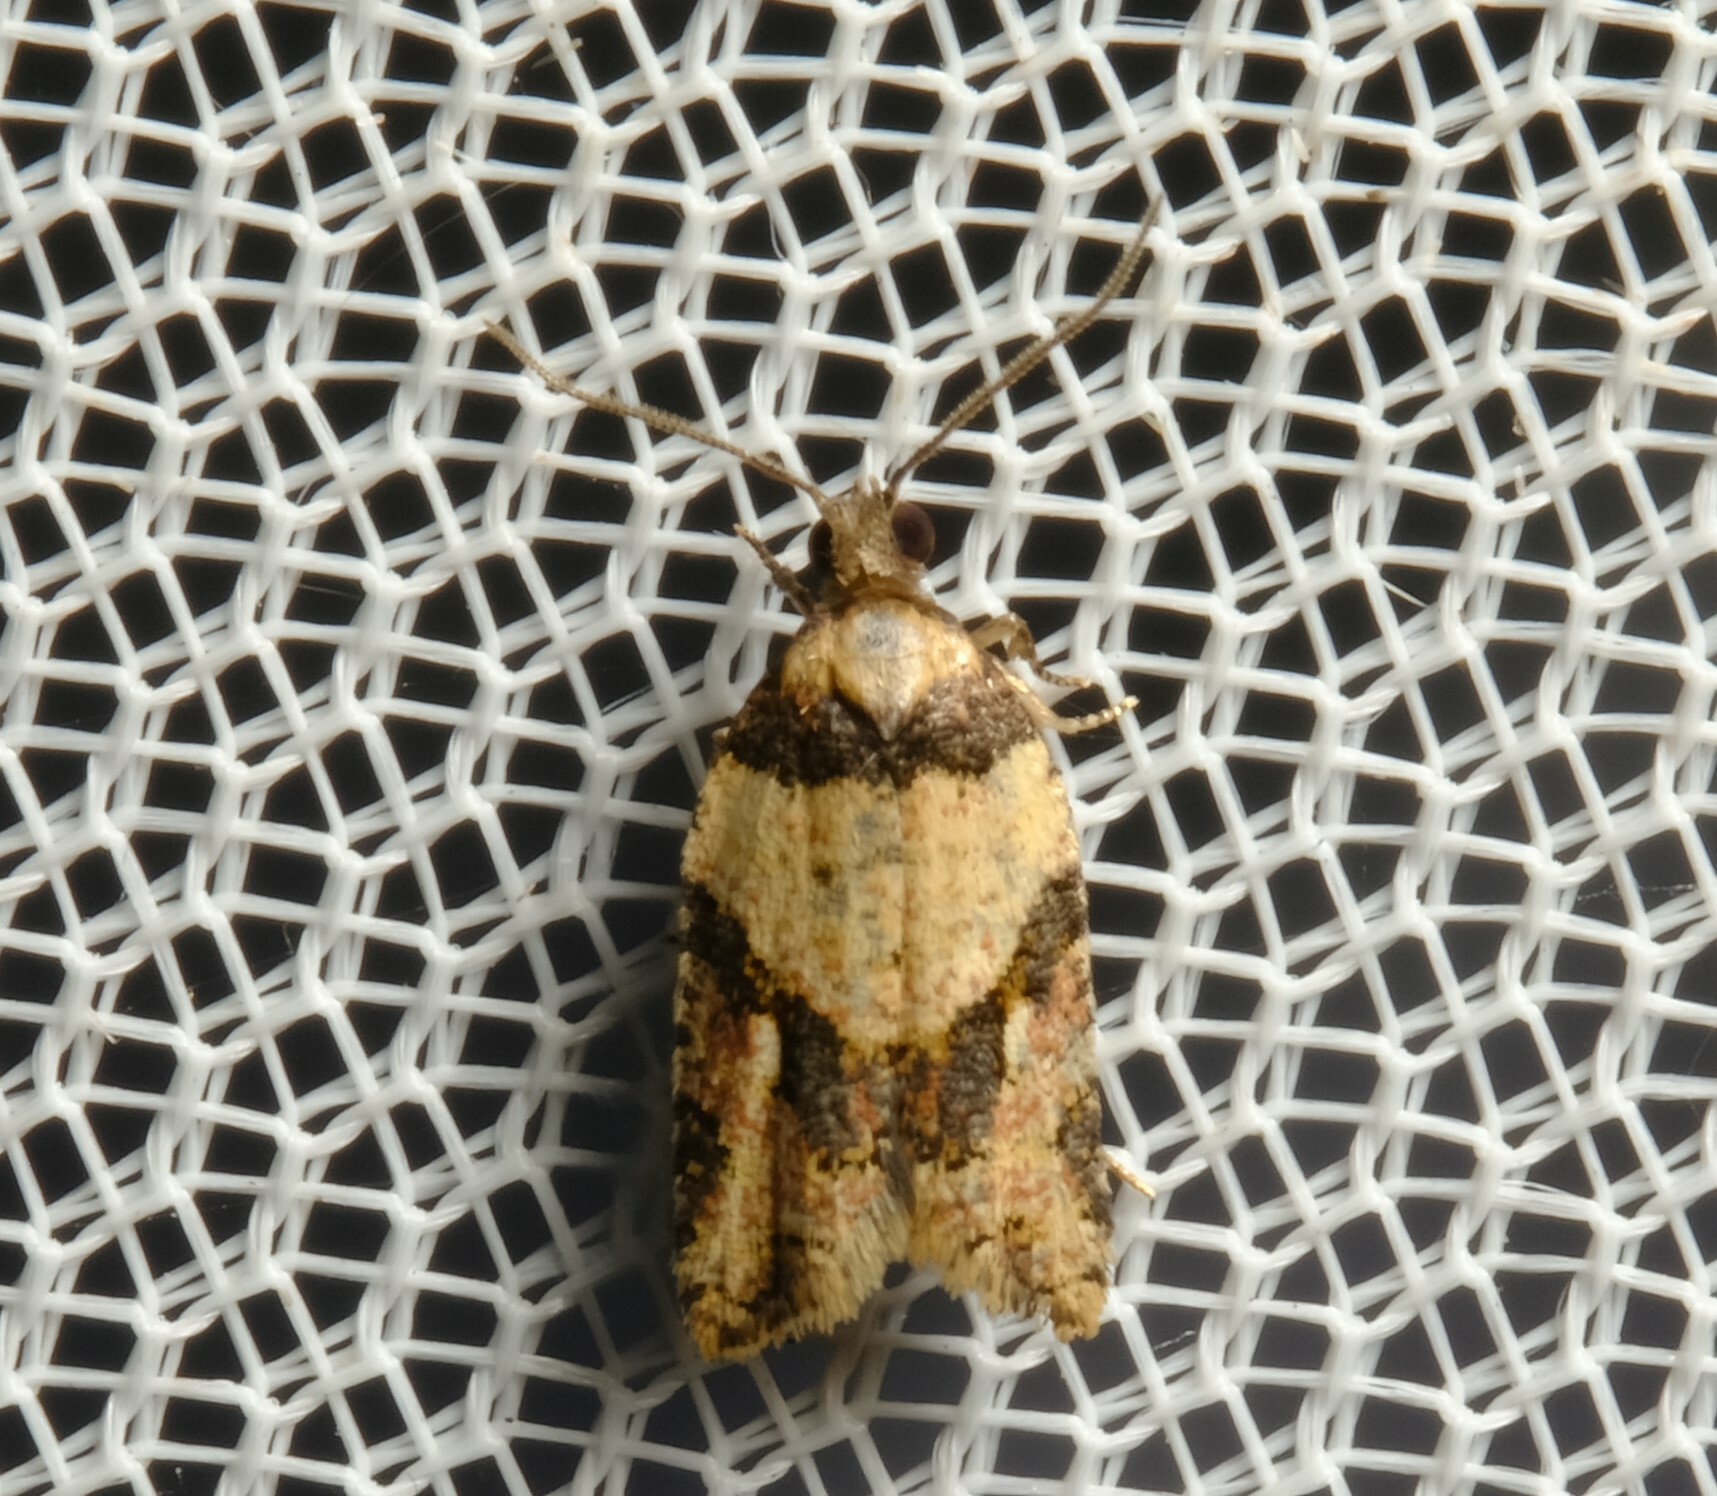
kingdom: Animalia
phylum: Arthropoda
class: Insecta
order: Lepidoptera
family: Tortricidae
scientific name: Tortricidae
